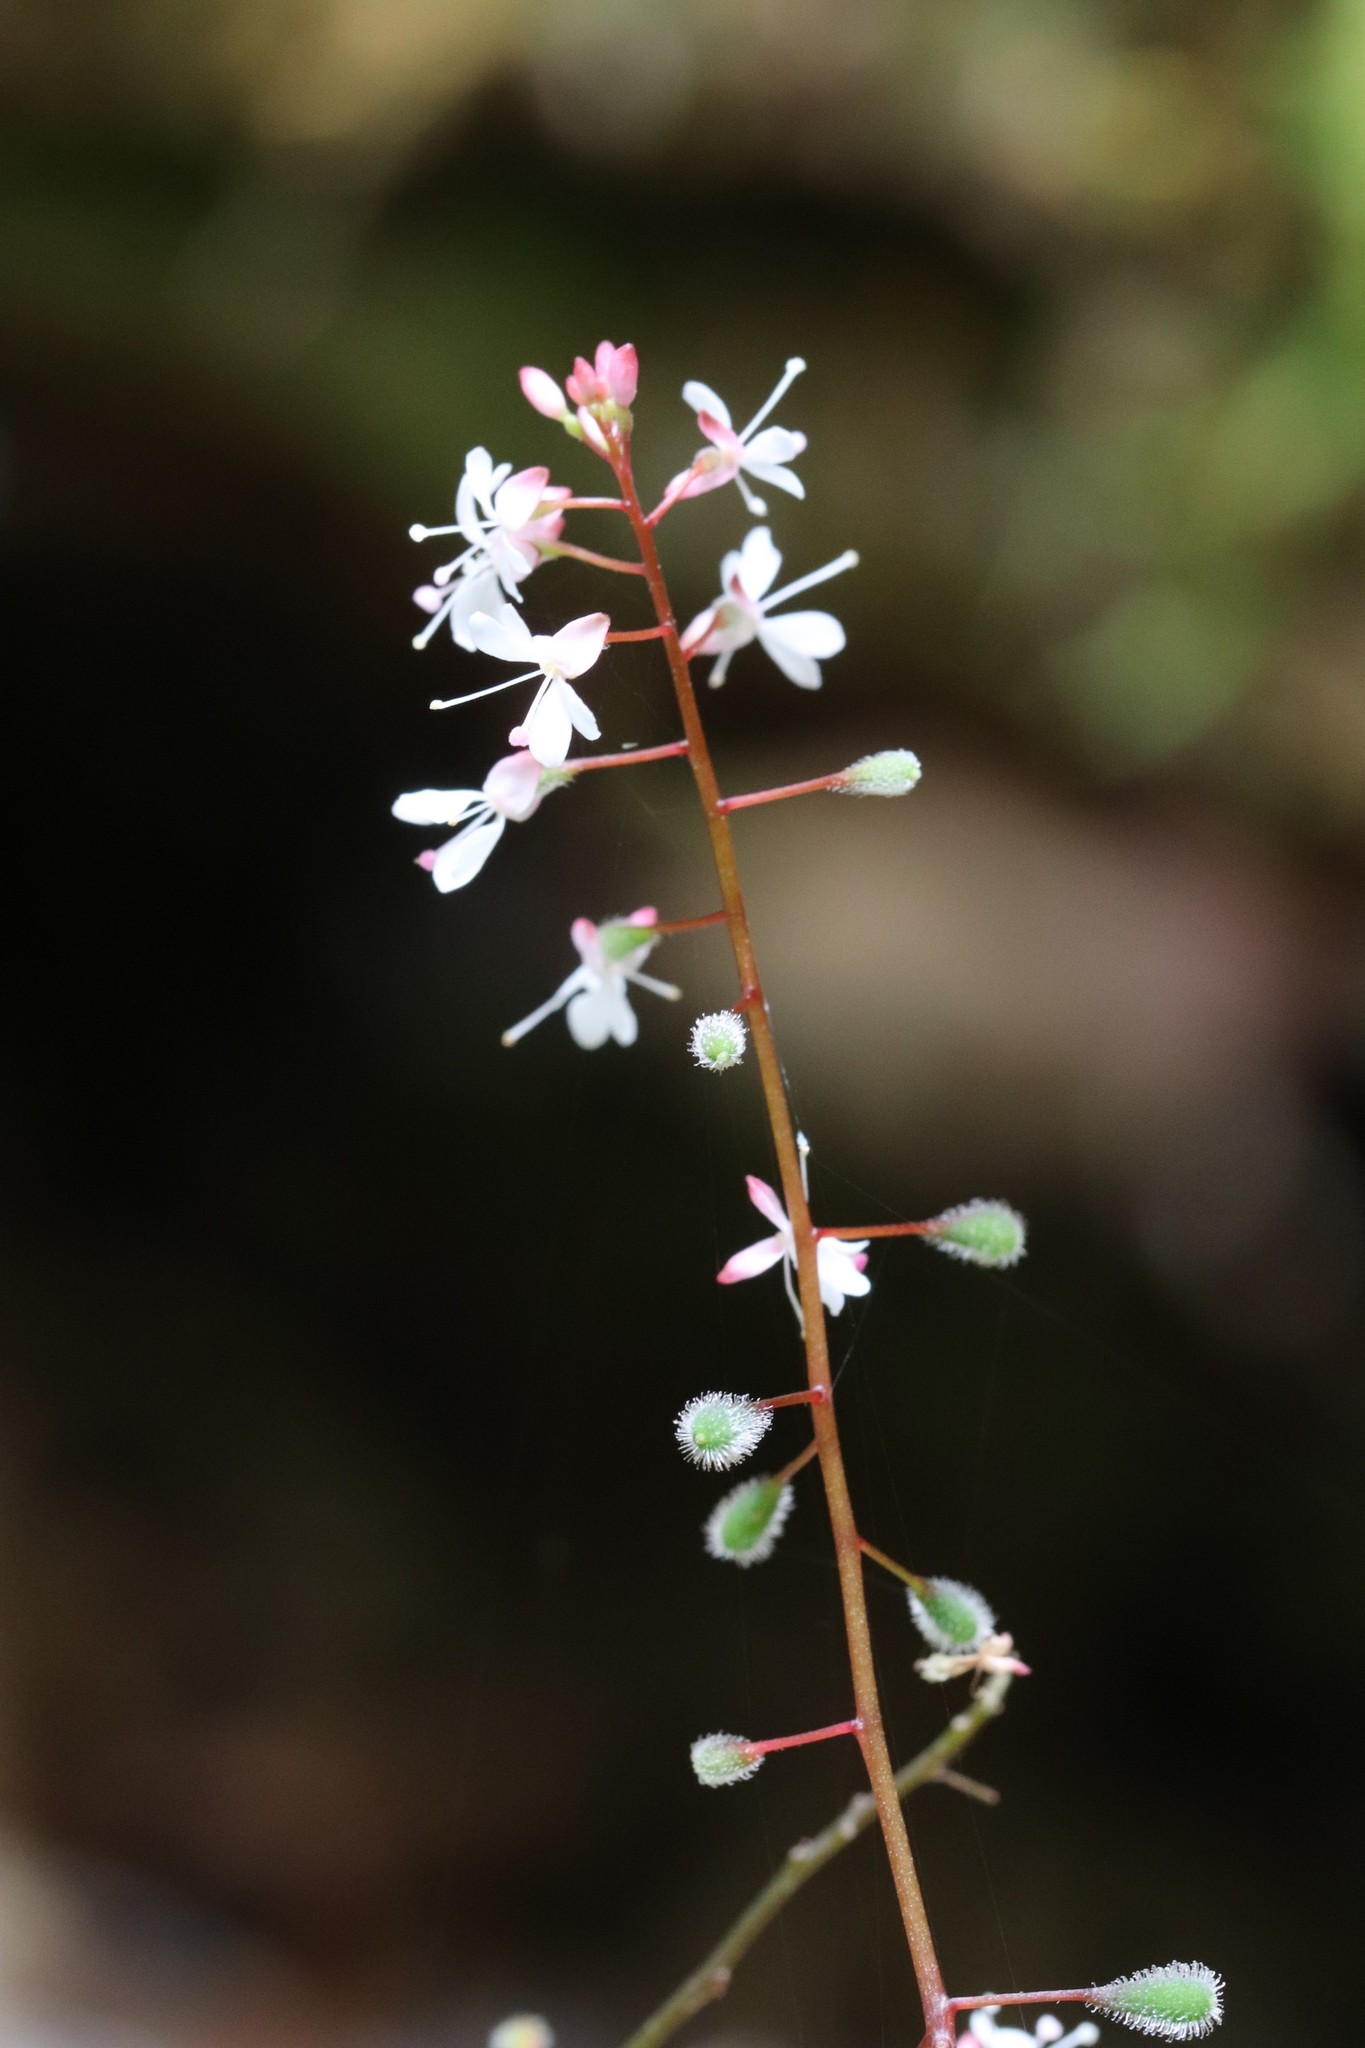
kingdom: Plantae
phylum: Tracheophyta
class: Magnoliopsida
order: Myrtales
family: Onagraceae
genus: Circaea
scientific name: Circaea alpina
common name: Alpine enchanter's-nightshade
